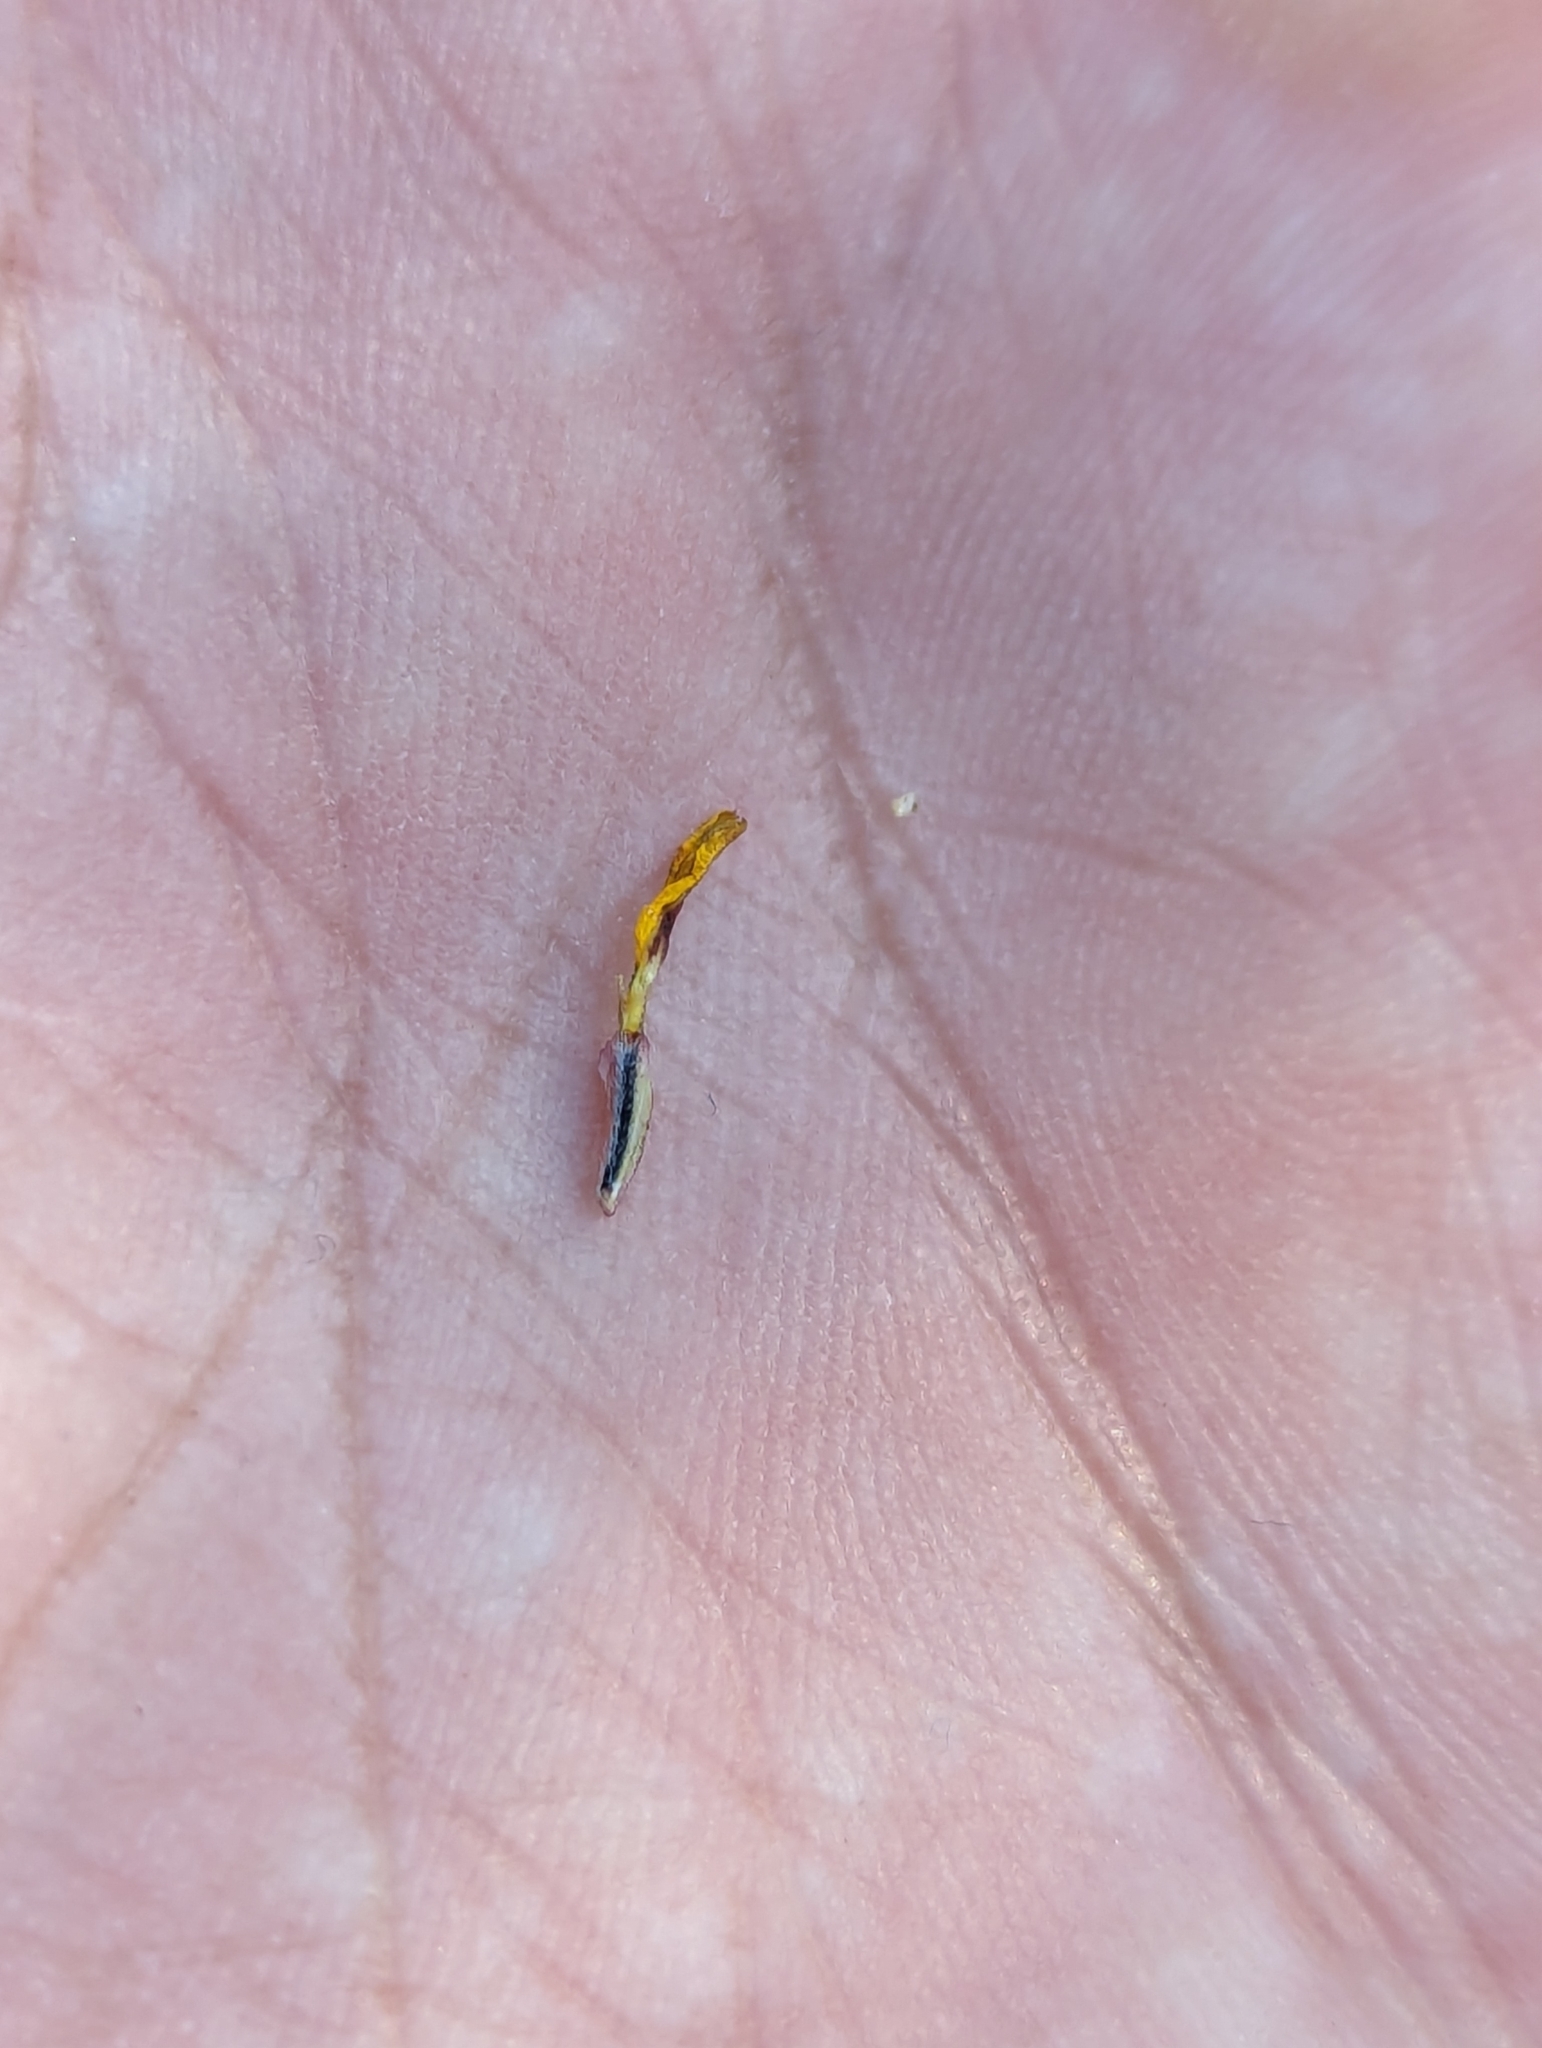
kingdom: Plantae
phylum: Tracheophyta
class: Magnoliopsida
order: Asterales
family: Asteraceae
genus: Pectis
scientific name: Pectis multiseta
